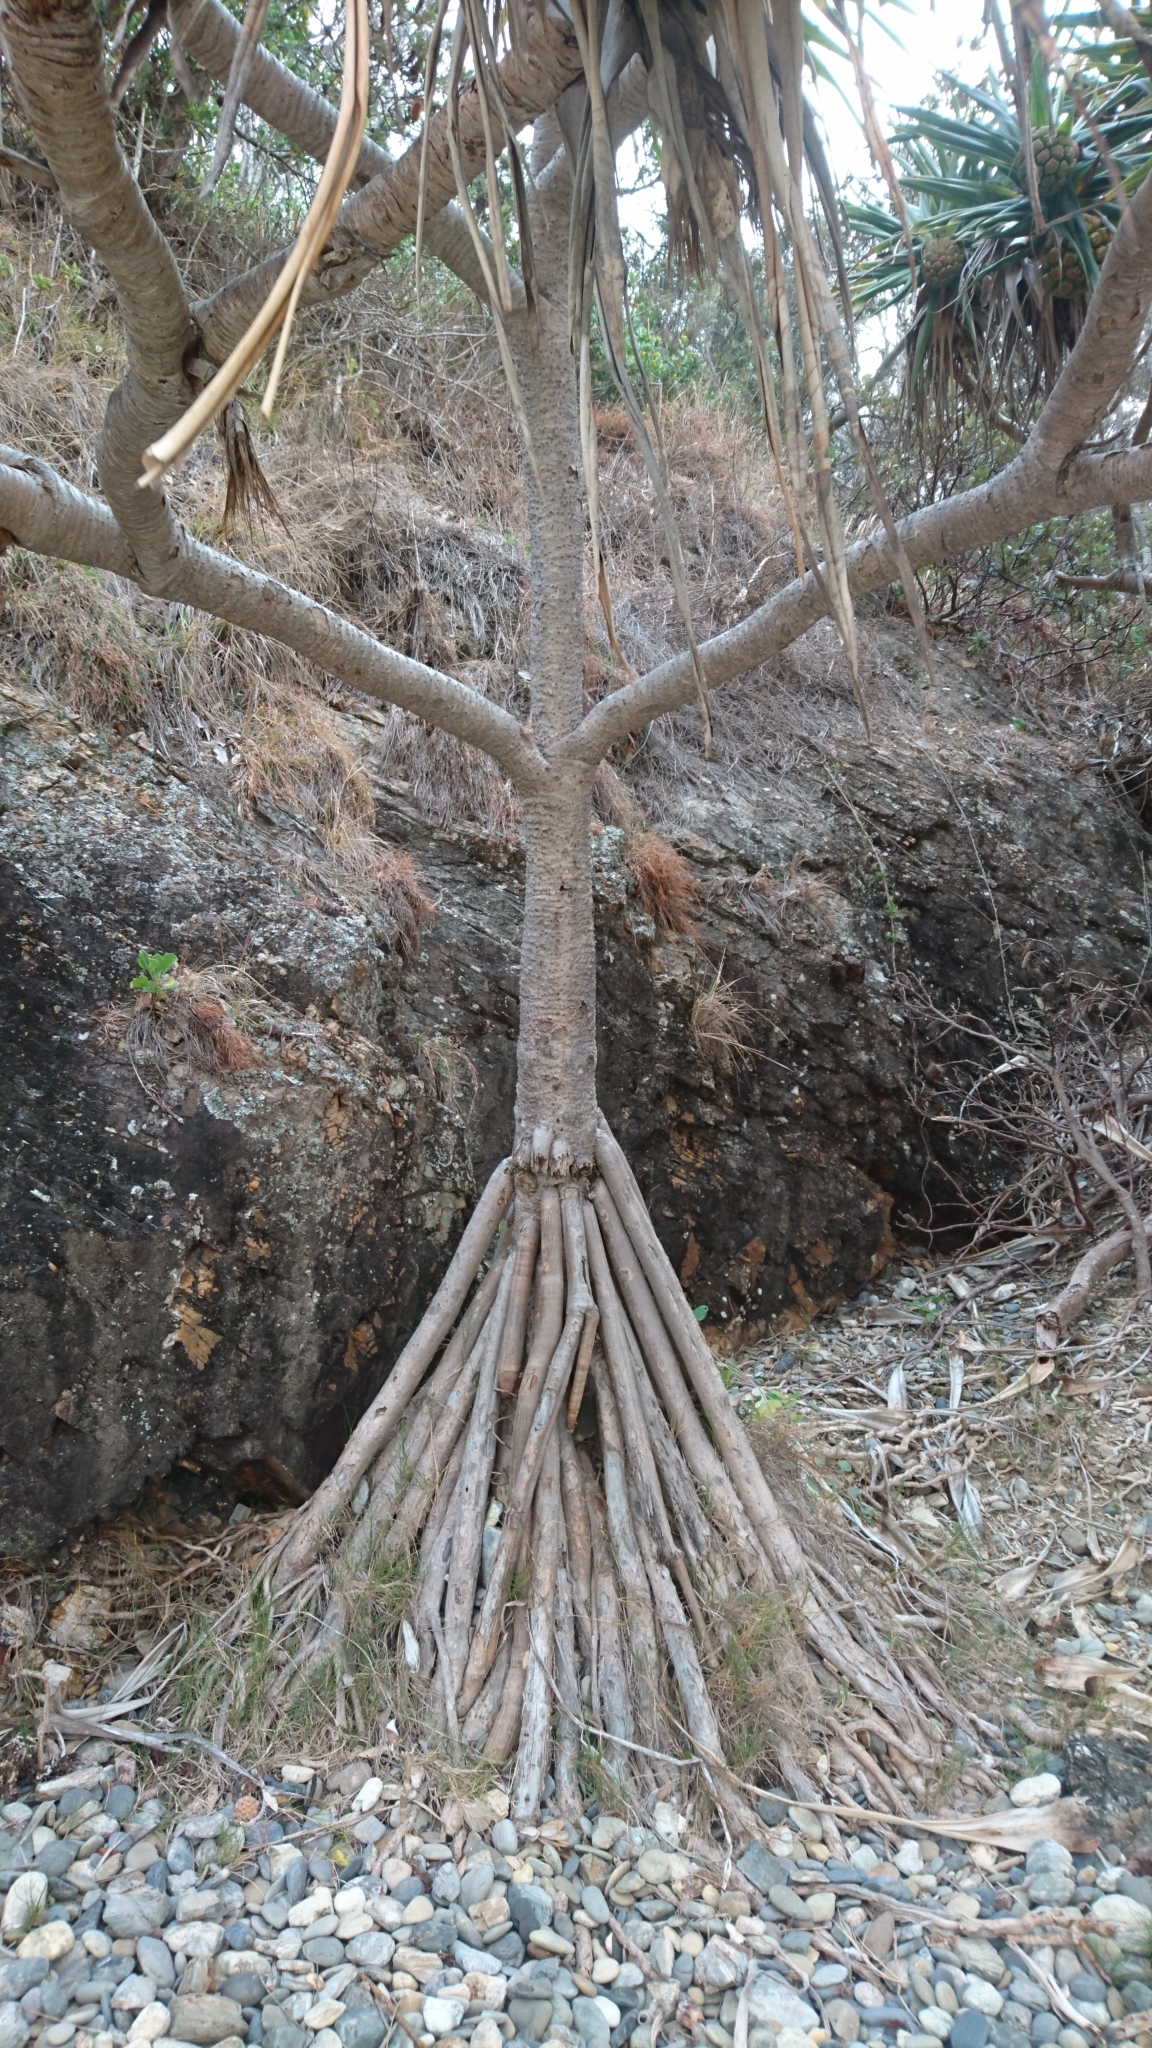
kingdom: Plantae
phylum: Tracheophyta
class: Liliopsida
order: Pandanales
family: Pandanaceae
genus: Pandanus
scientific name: Pandanus tectorius
